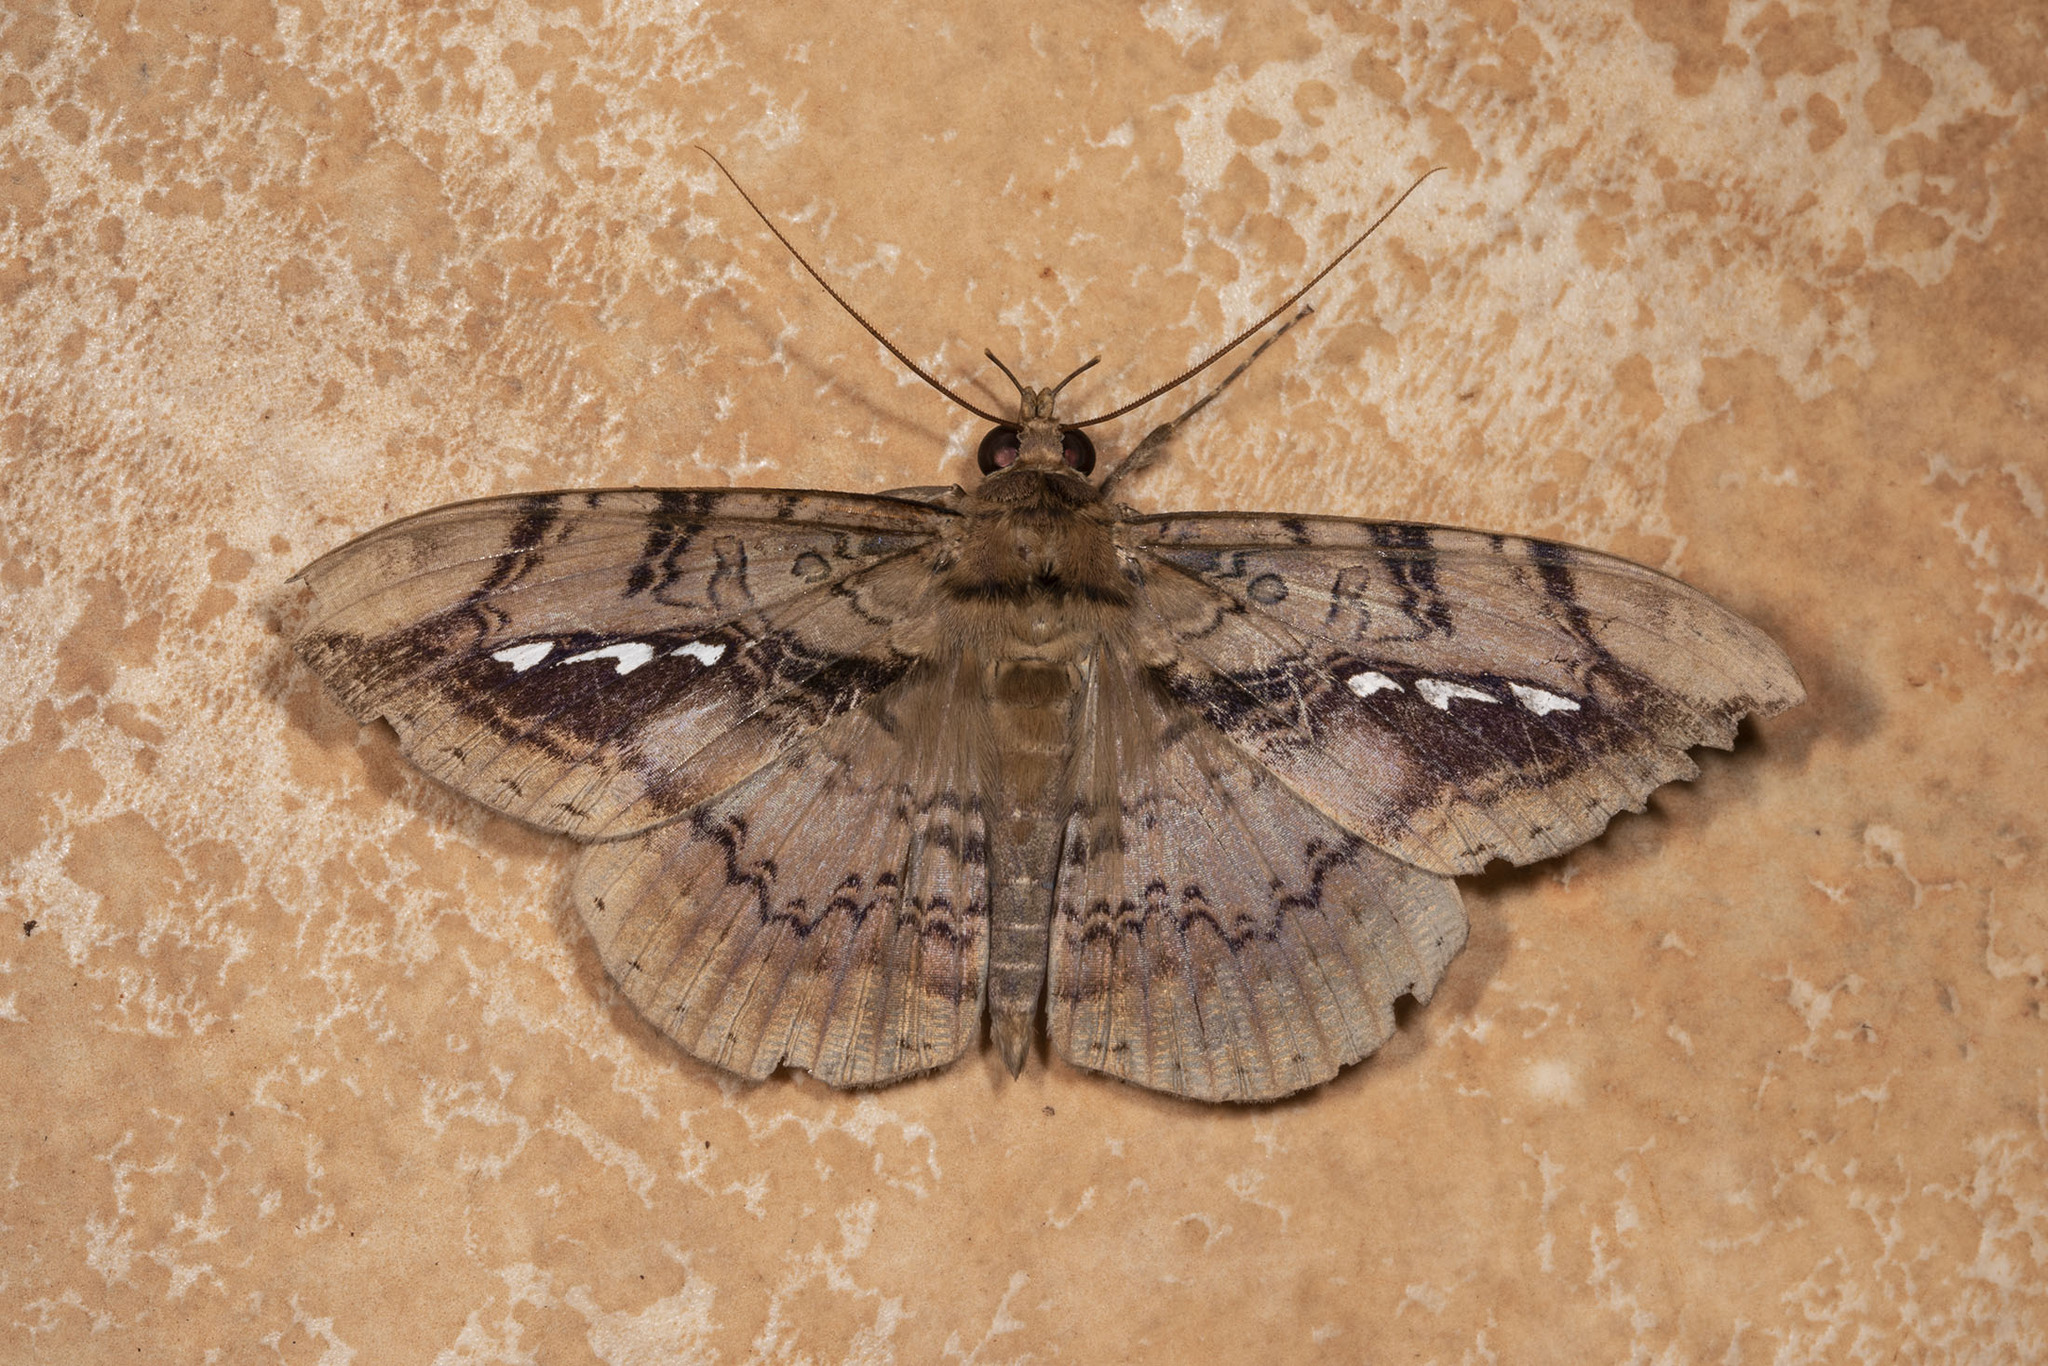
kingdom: Animalia
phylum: Arthropoda
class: Insecta
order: Lepidoptera
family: Erebidae
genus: Hemeroblemma
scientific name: Hemeroblemma acron
